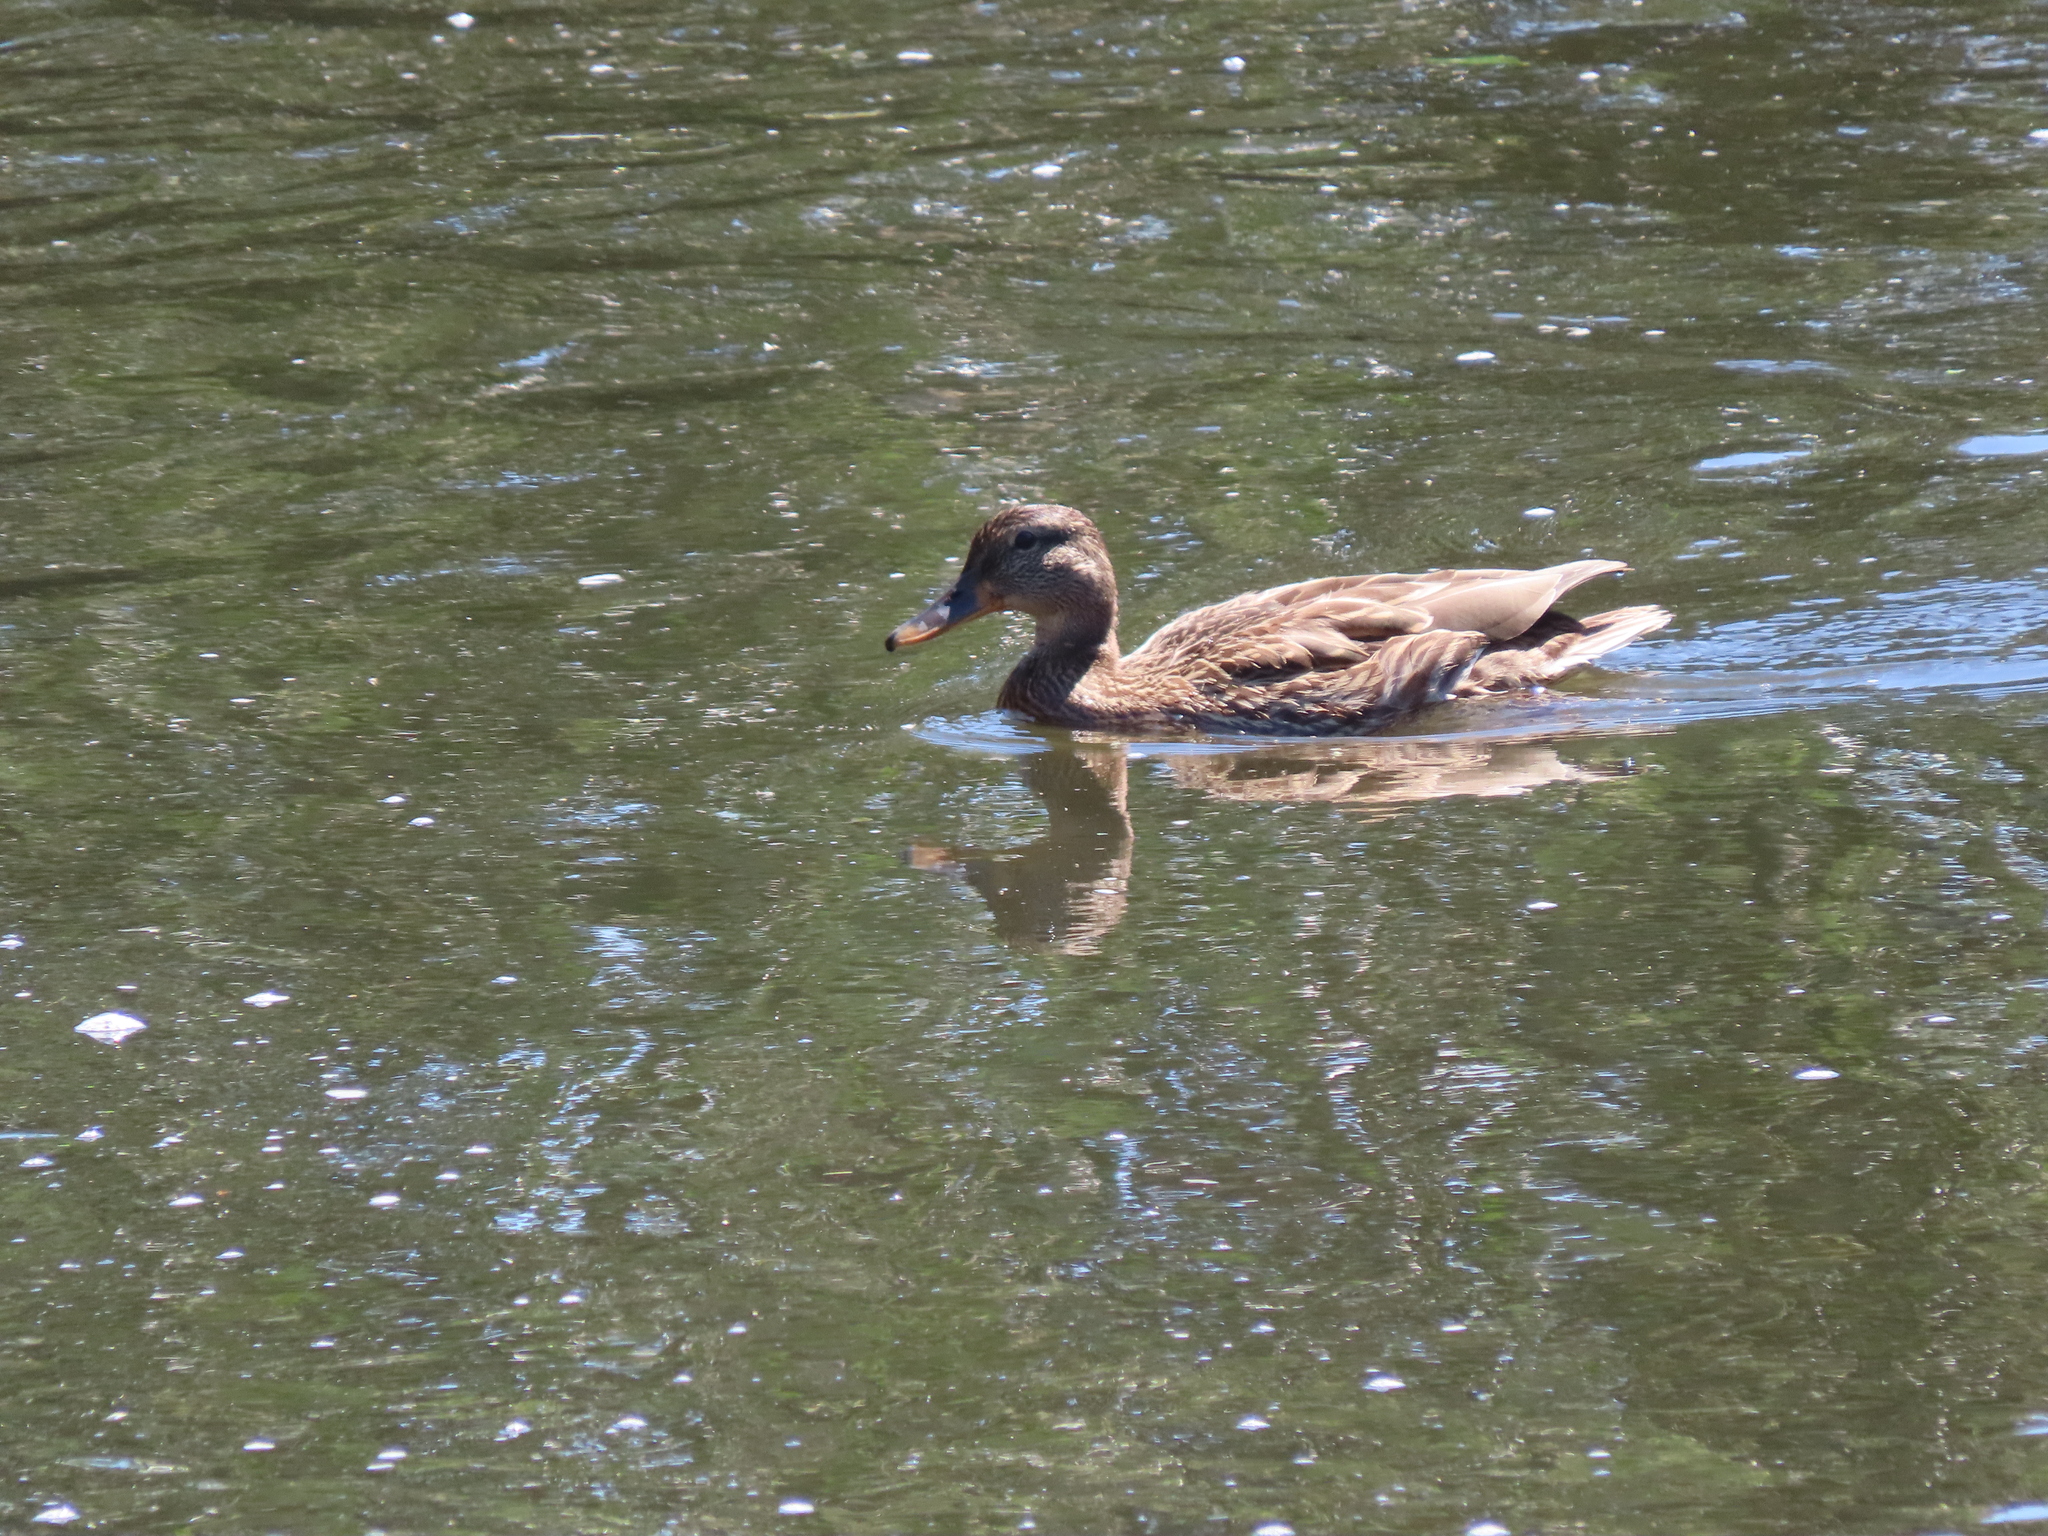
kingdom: Animalia
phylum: Chordata
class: Aves
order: Anseriformes
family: Anatidae
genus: Anas
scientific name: Anas platyrhynchos
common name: Mallard
